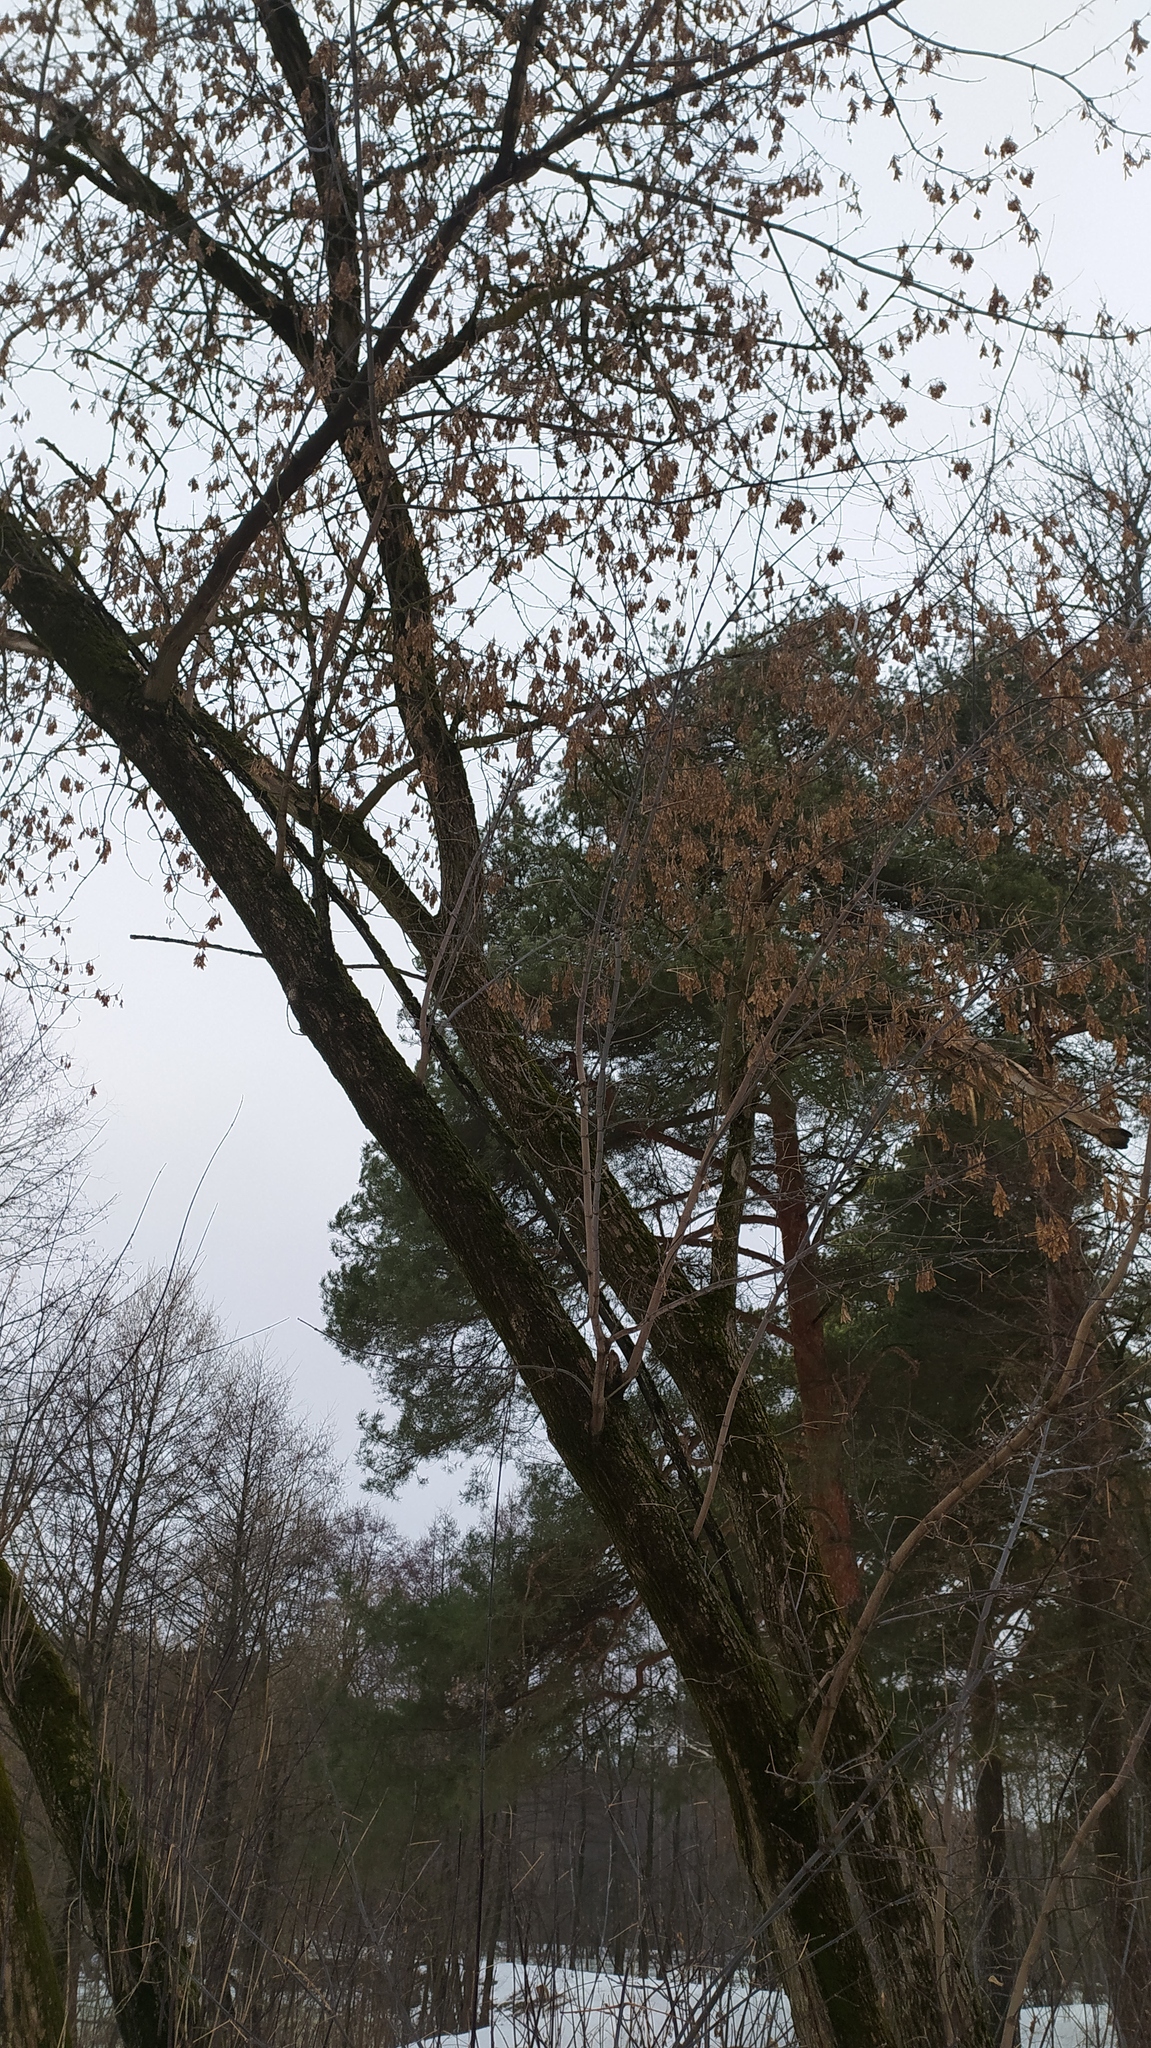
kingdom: Plantae
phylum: Tracheophyta
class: Magnoliopsida
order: Sapindales
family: Sapindaceae
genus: Acer
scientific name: Acer negundo
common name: Ashleaf maple
